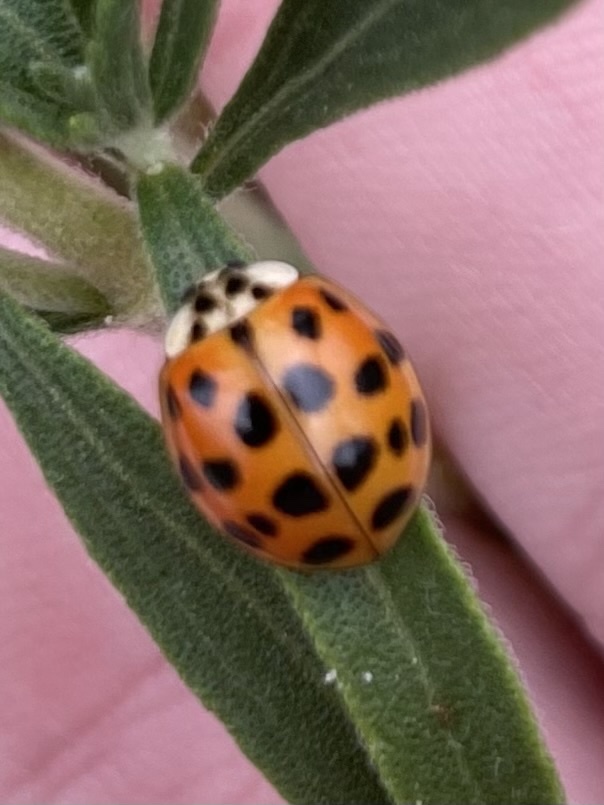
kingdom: Animalia
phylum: Arthropoda
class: Insecta
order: Coleoptera
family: Coccinellidae
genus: Harmonia
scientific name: Harmonia axyridis
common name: Harlequin ladybird
